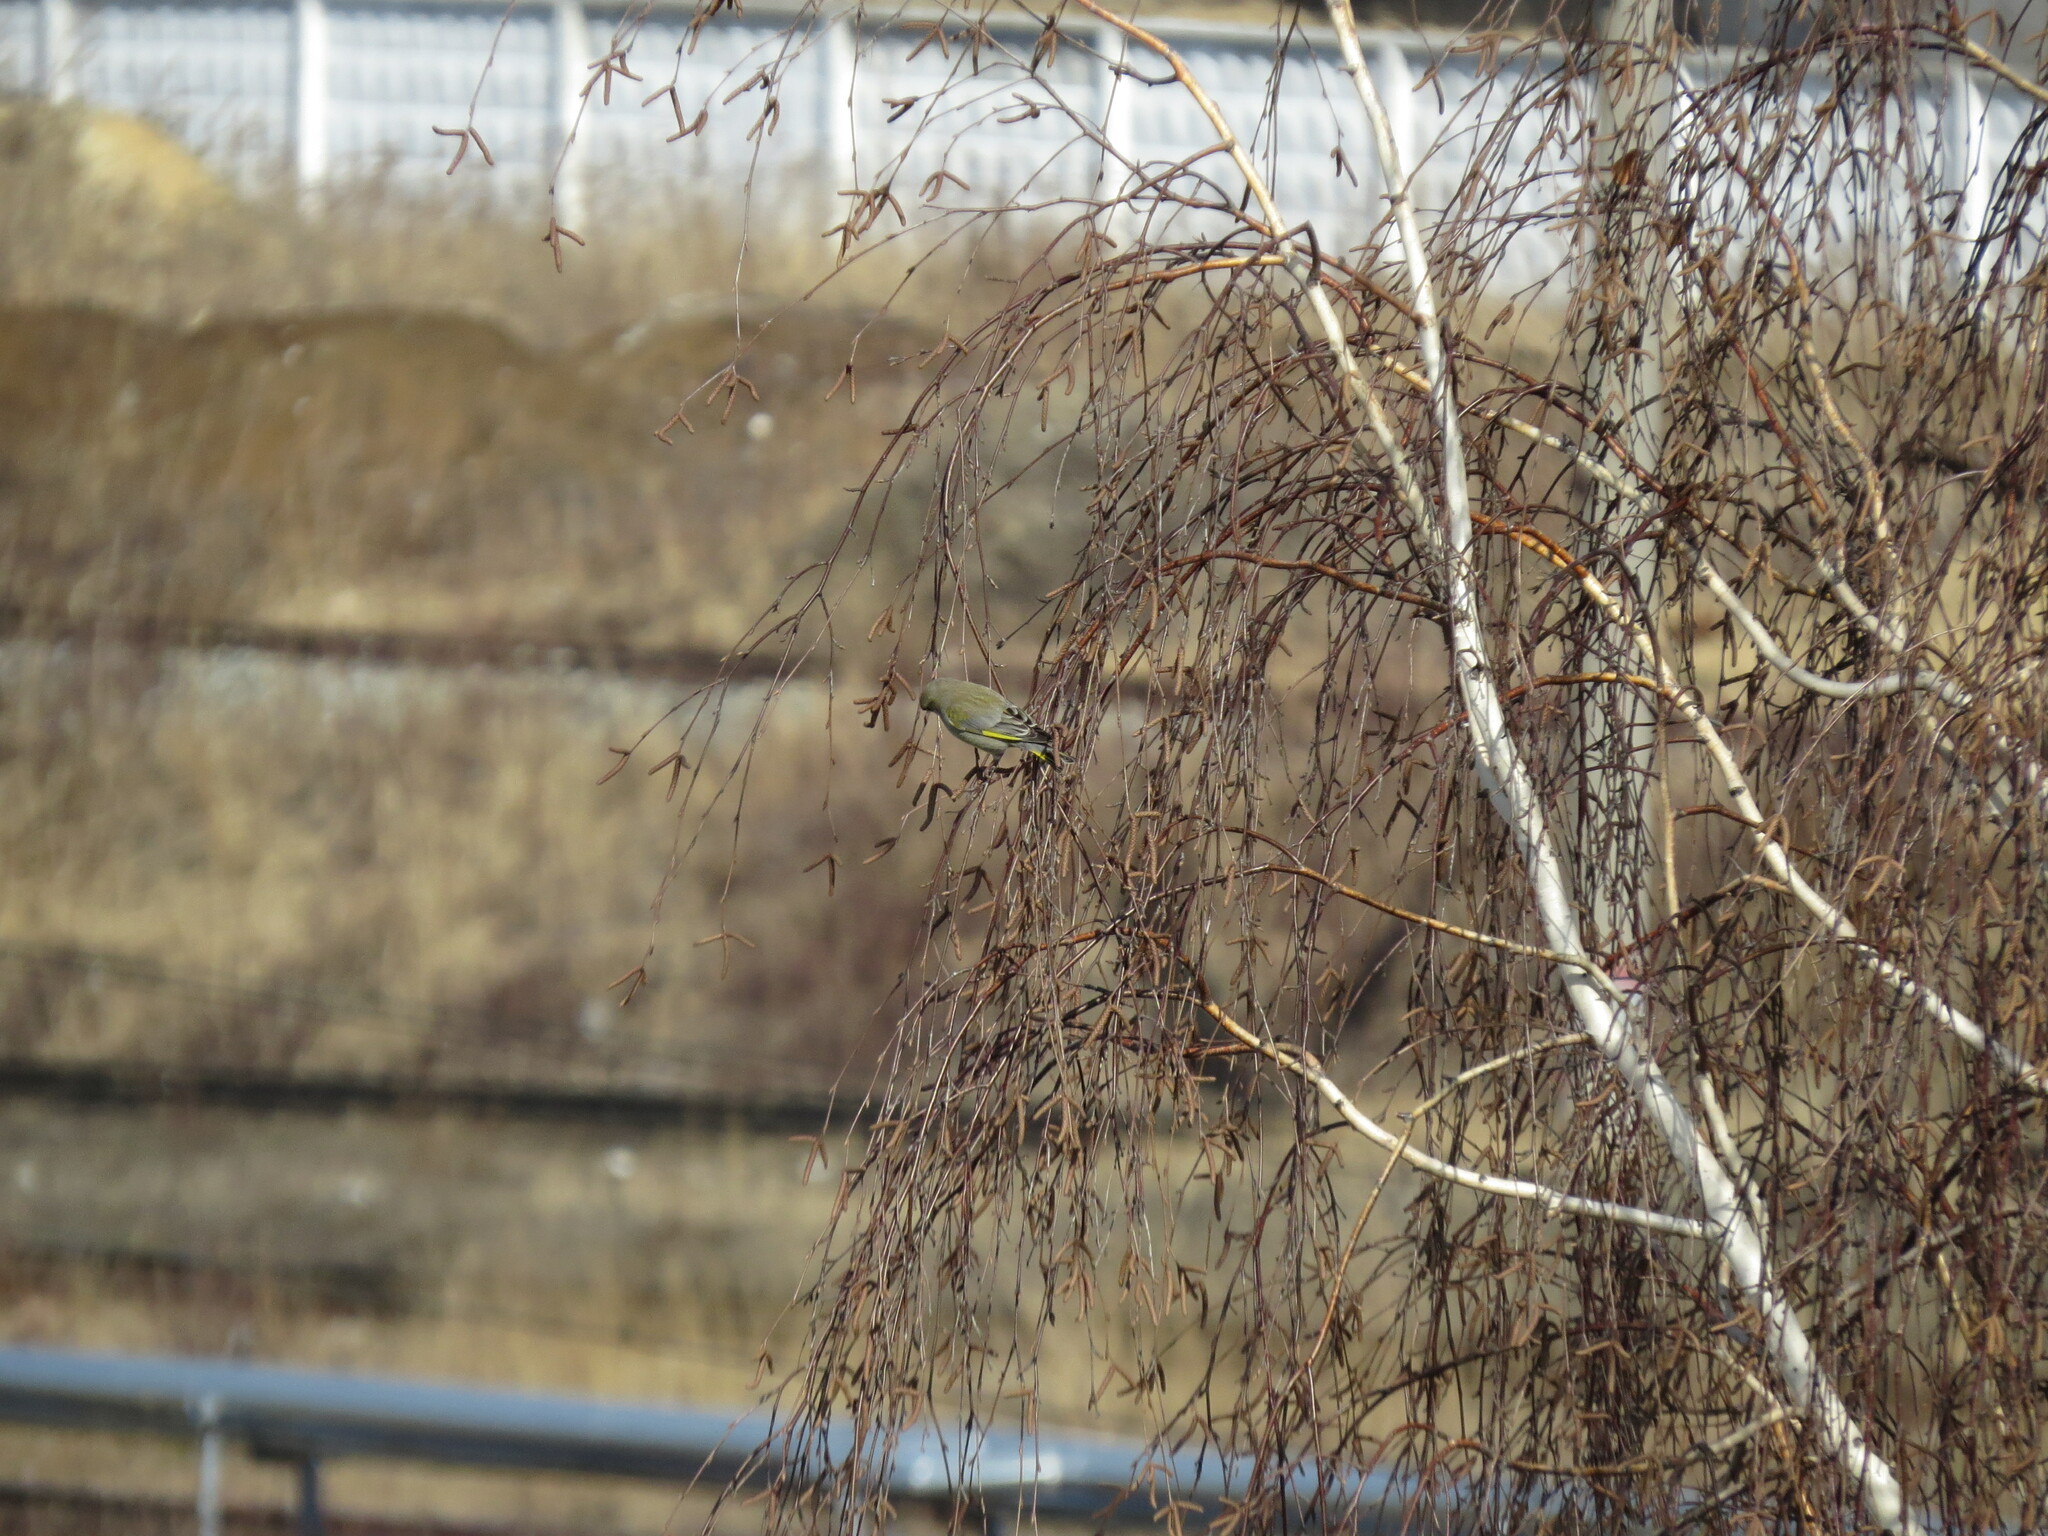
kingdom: Plantae
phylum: Tracheophyta
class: Liliopsida
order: Poales
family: Poaceae
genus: Chloris
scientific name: Chloris chloris
